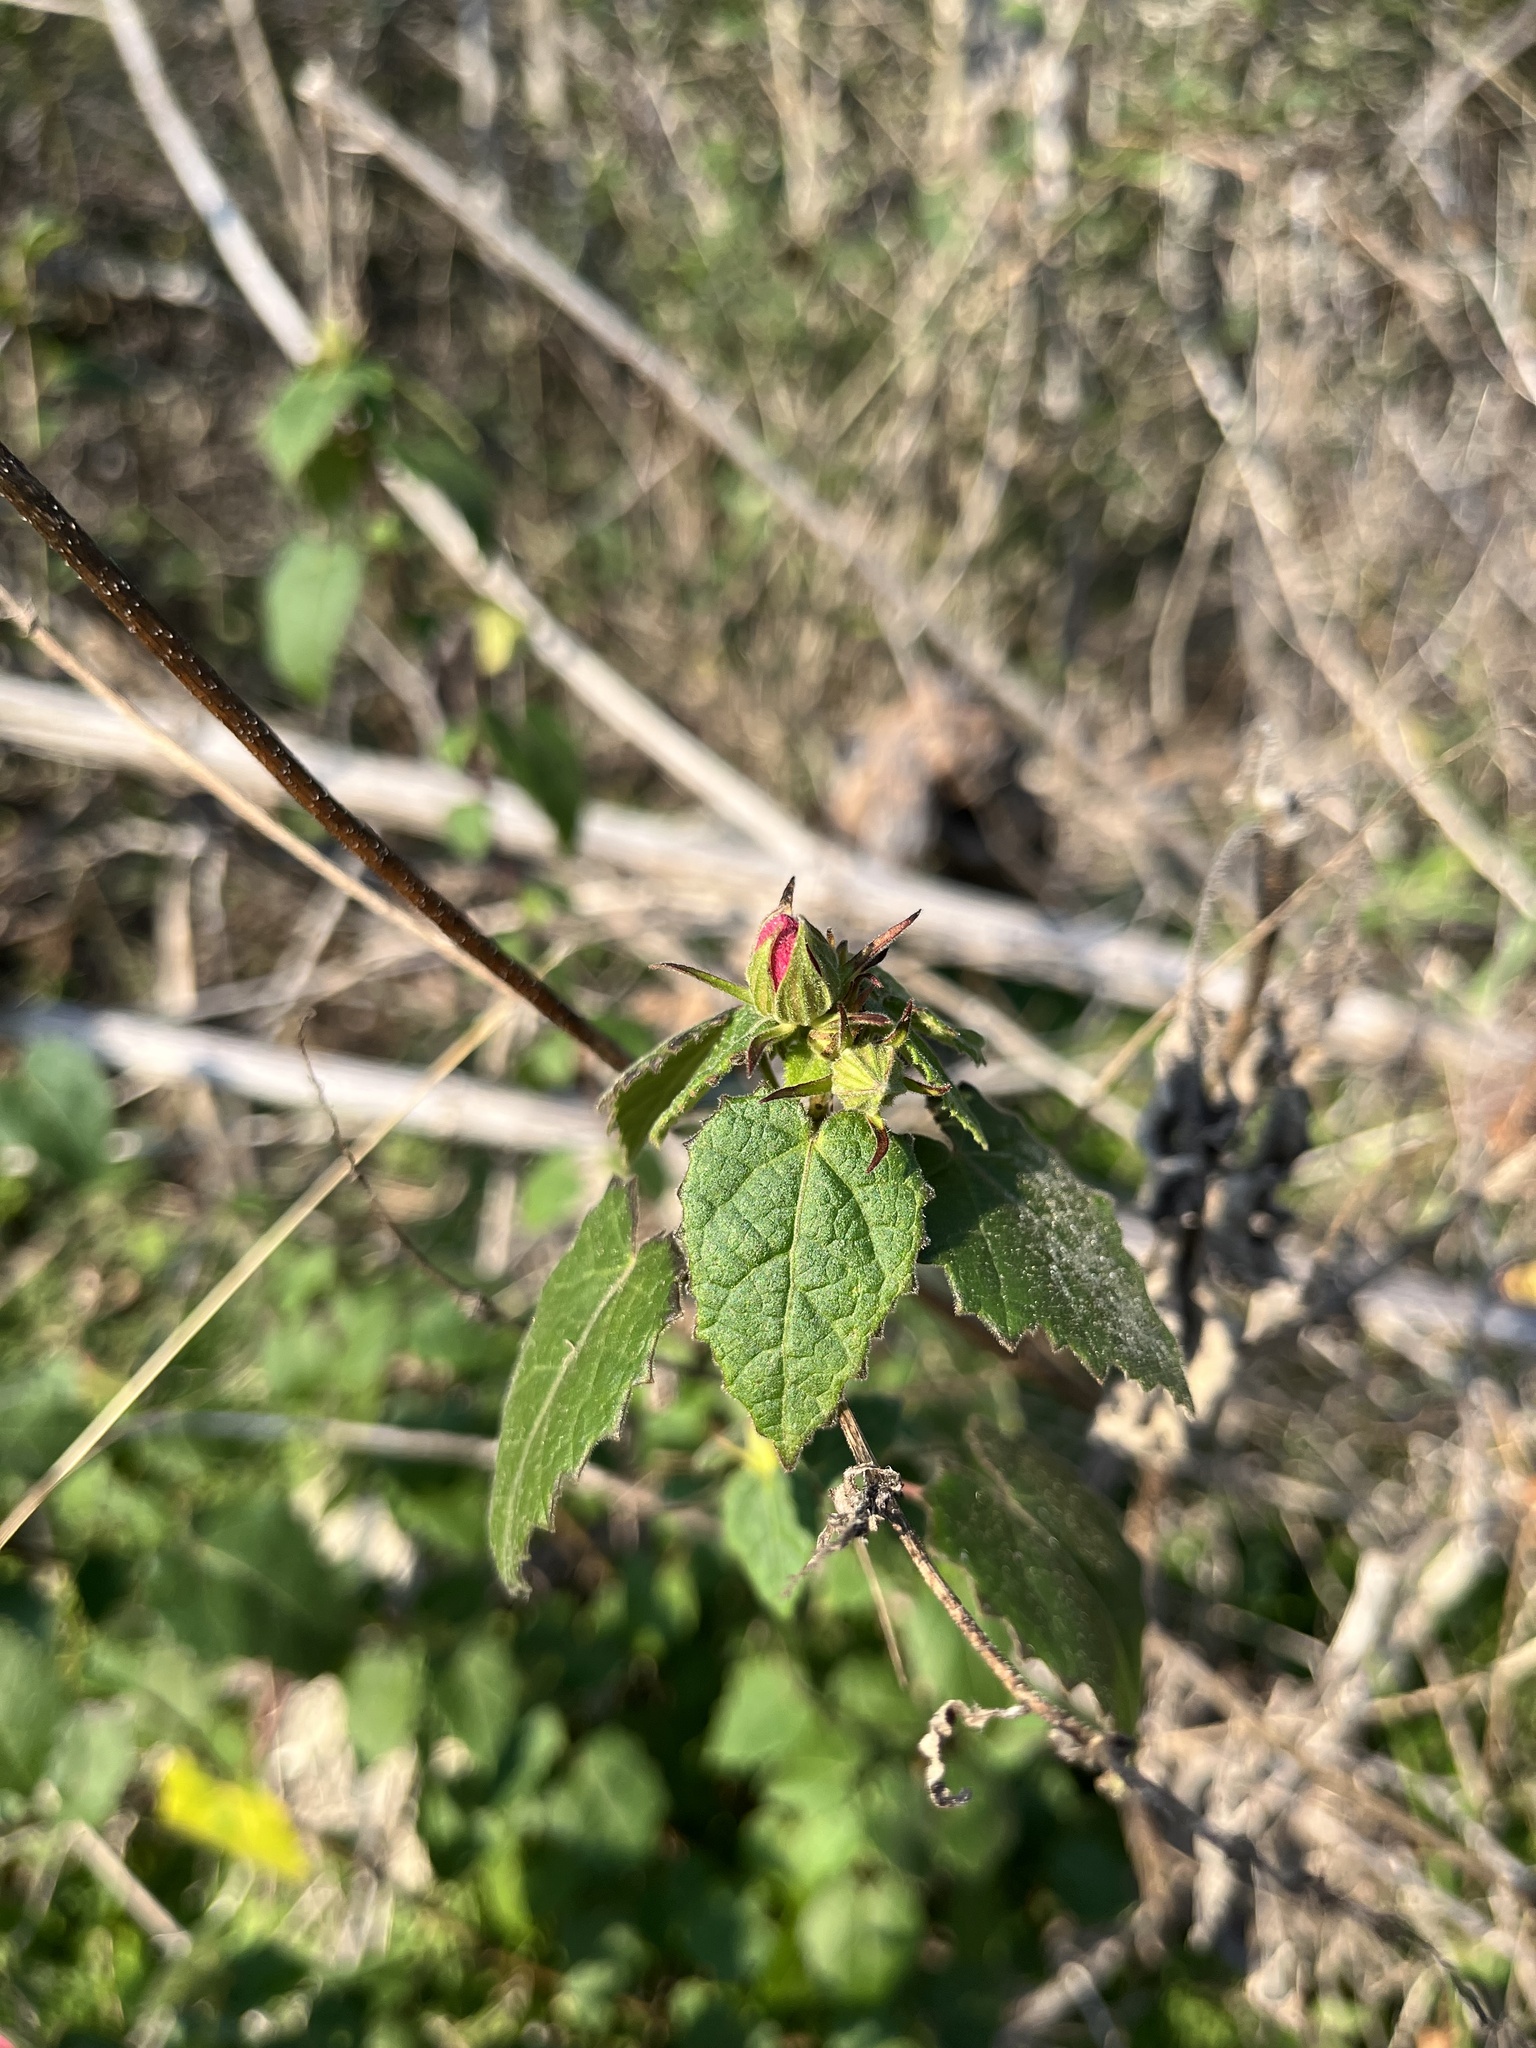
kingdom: Plantae
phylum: Tracheophyta
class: Magnoliopsida
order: Malvales
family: Malvaceae
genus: Pavonia
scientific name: Pavonia lasiopetala
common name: Texas swamp-mallow
